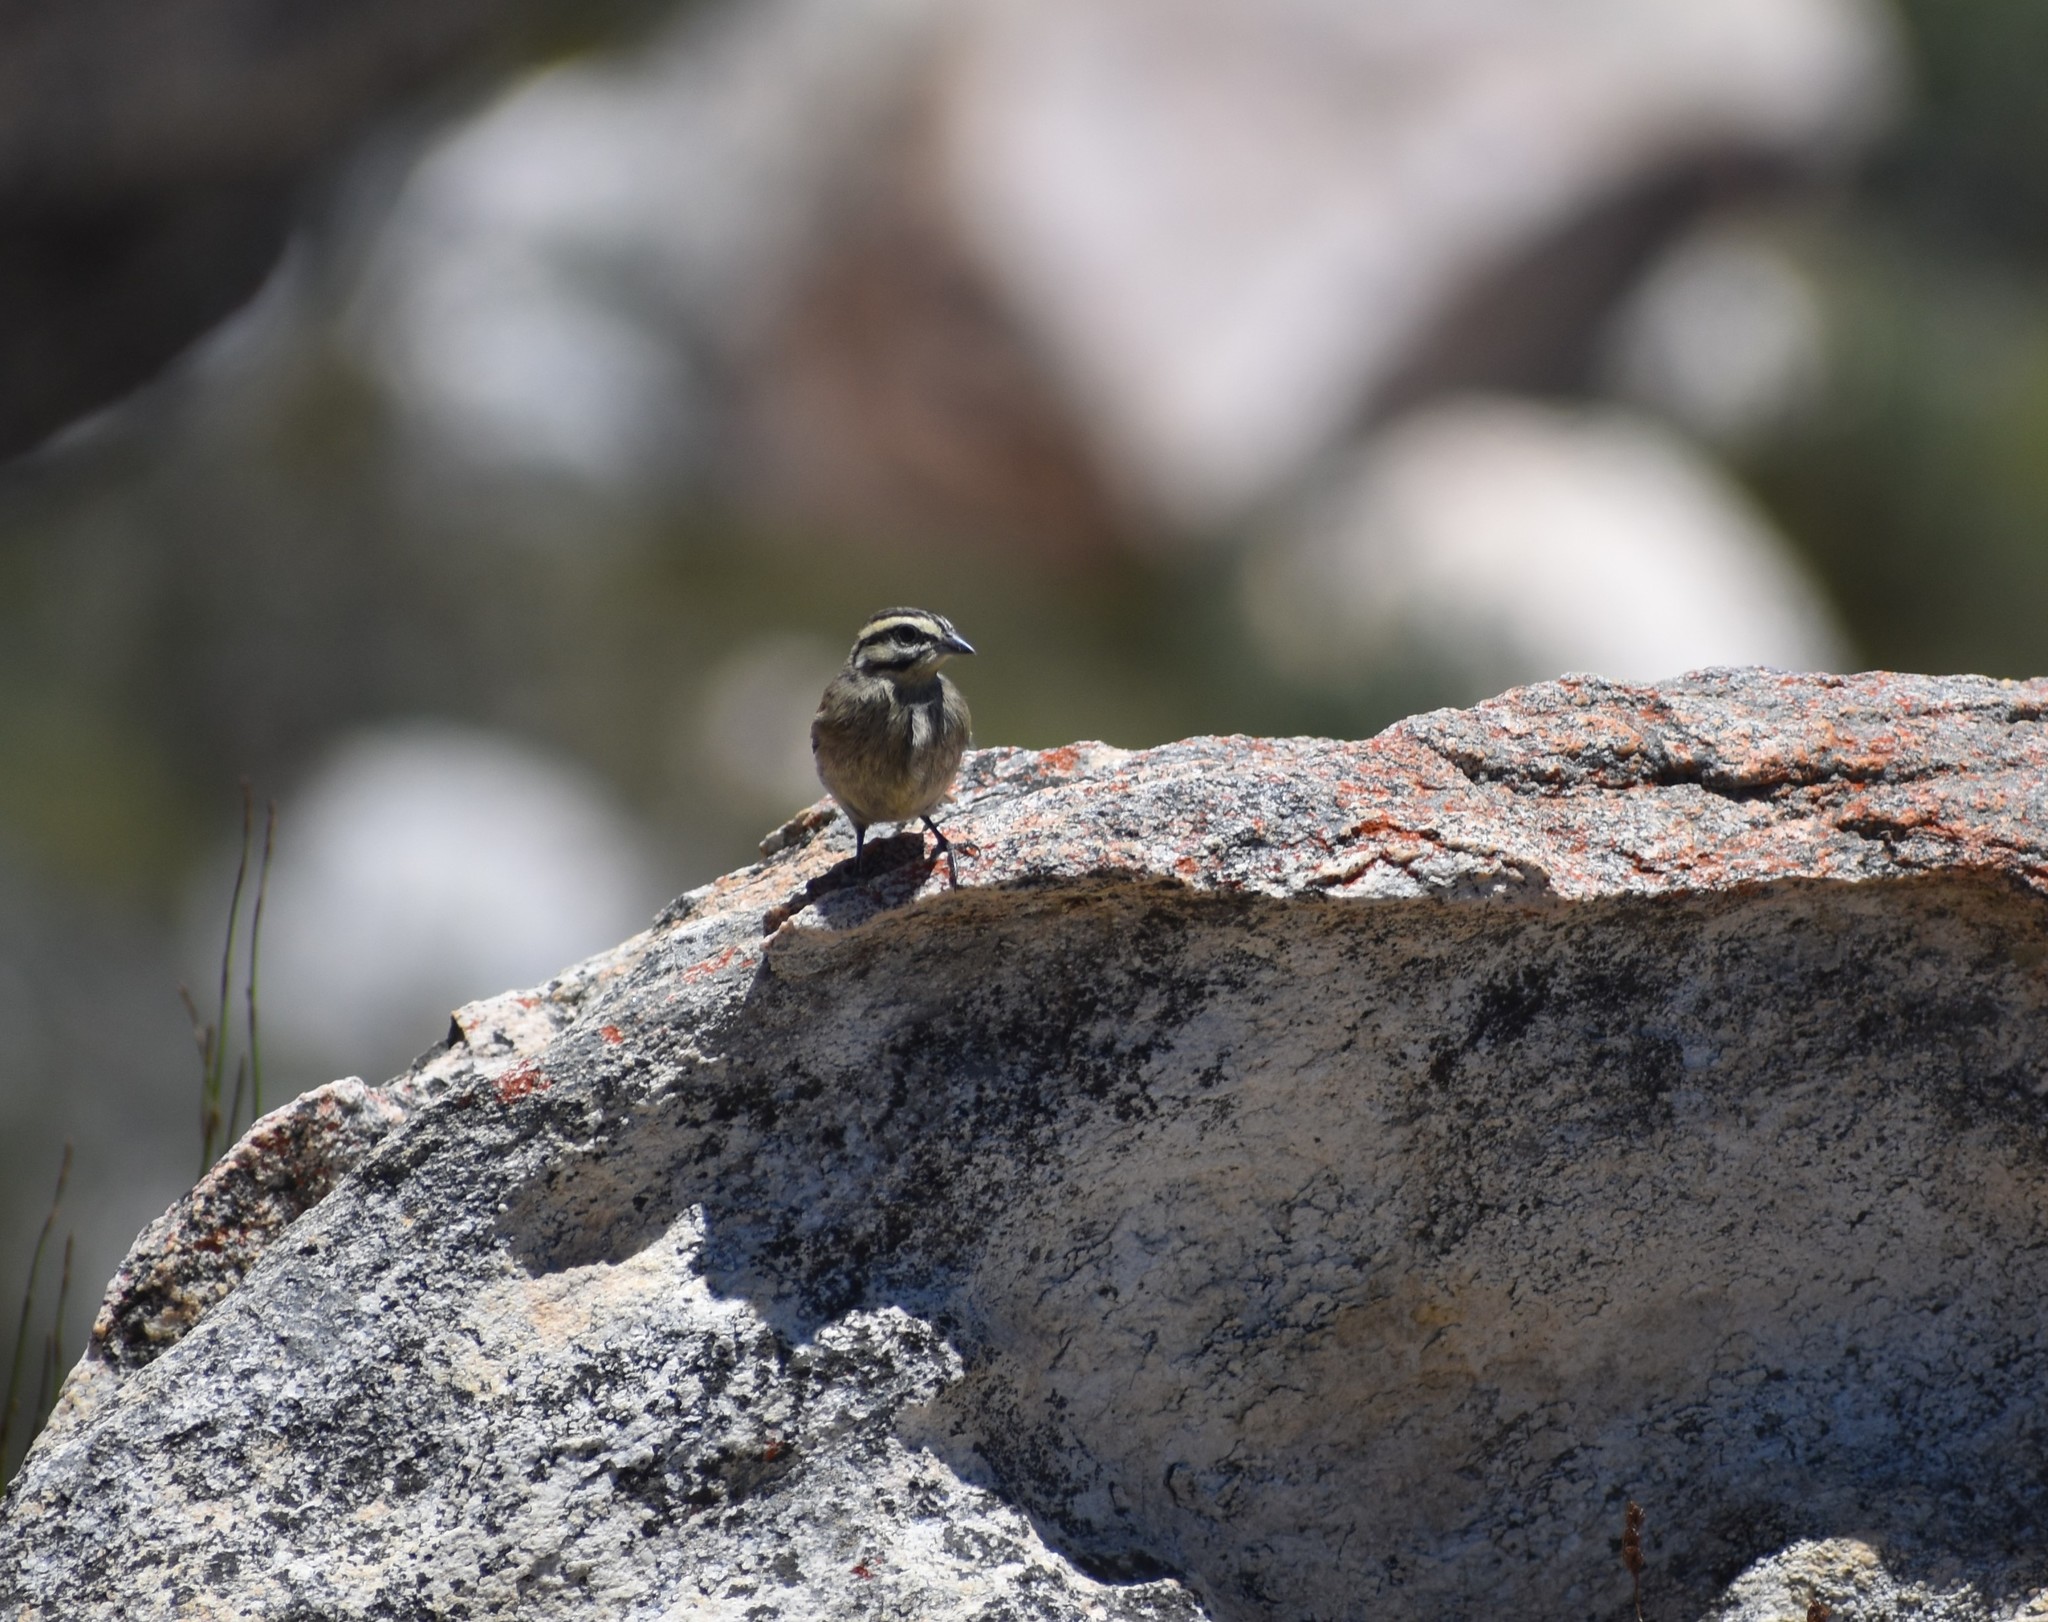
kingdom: Animalia
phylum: Chordata
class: Aves
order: Passeriformes
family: Emberizidae
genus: Emberiza
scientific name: Emberiza capensis
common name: Cape bunting
